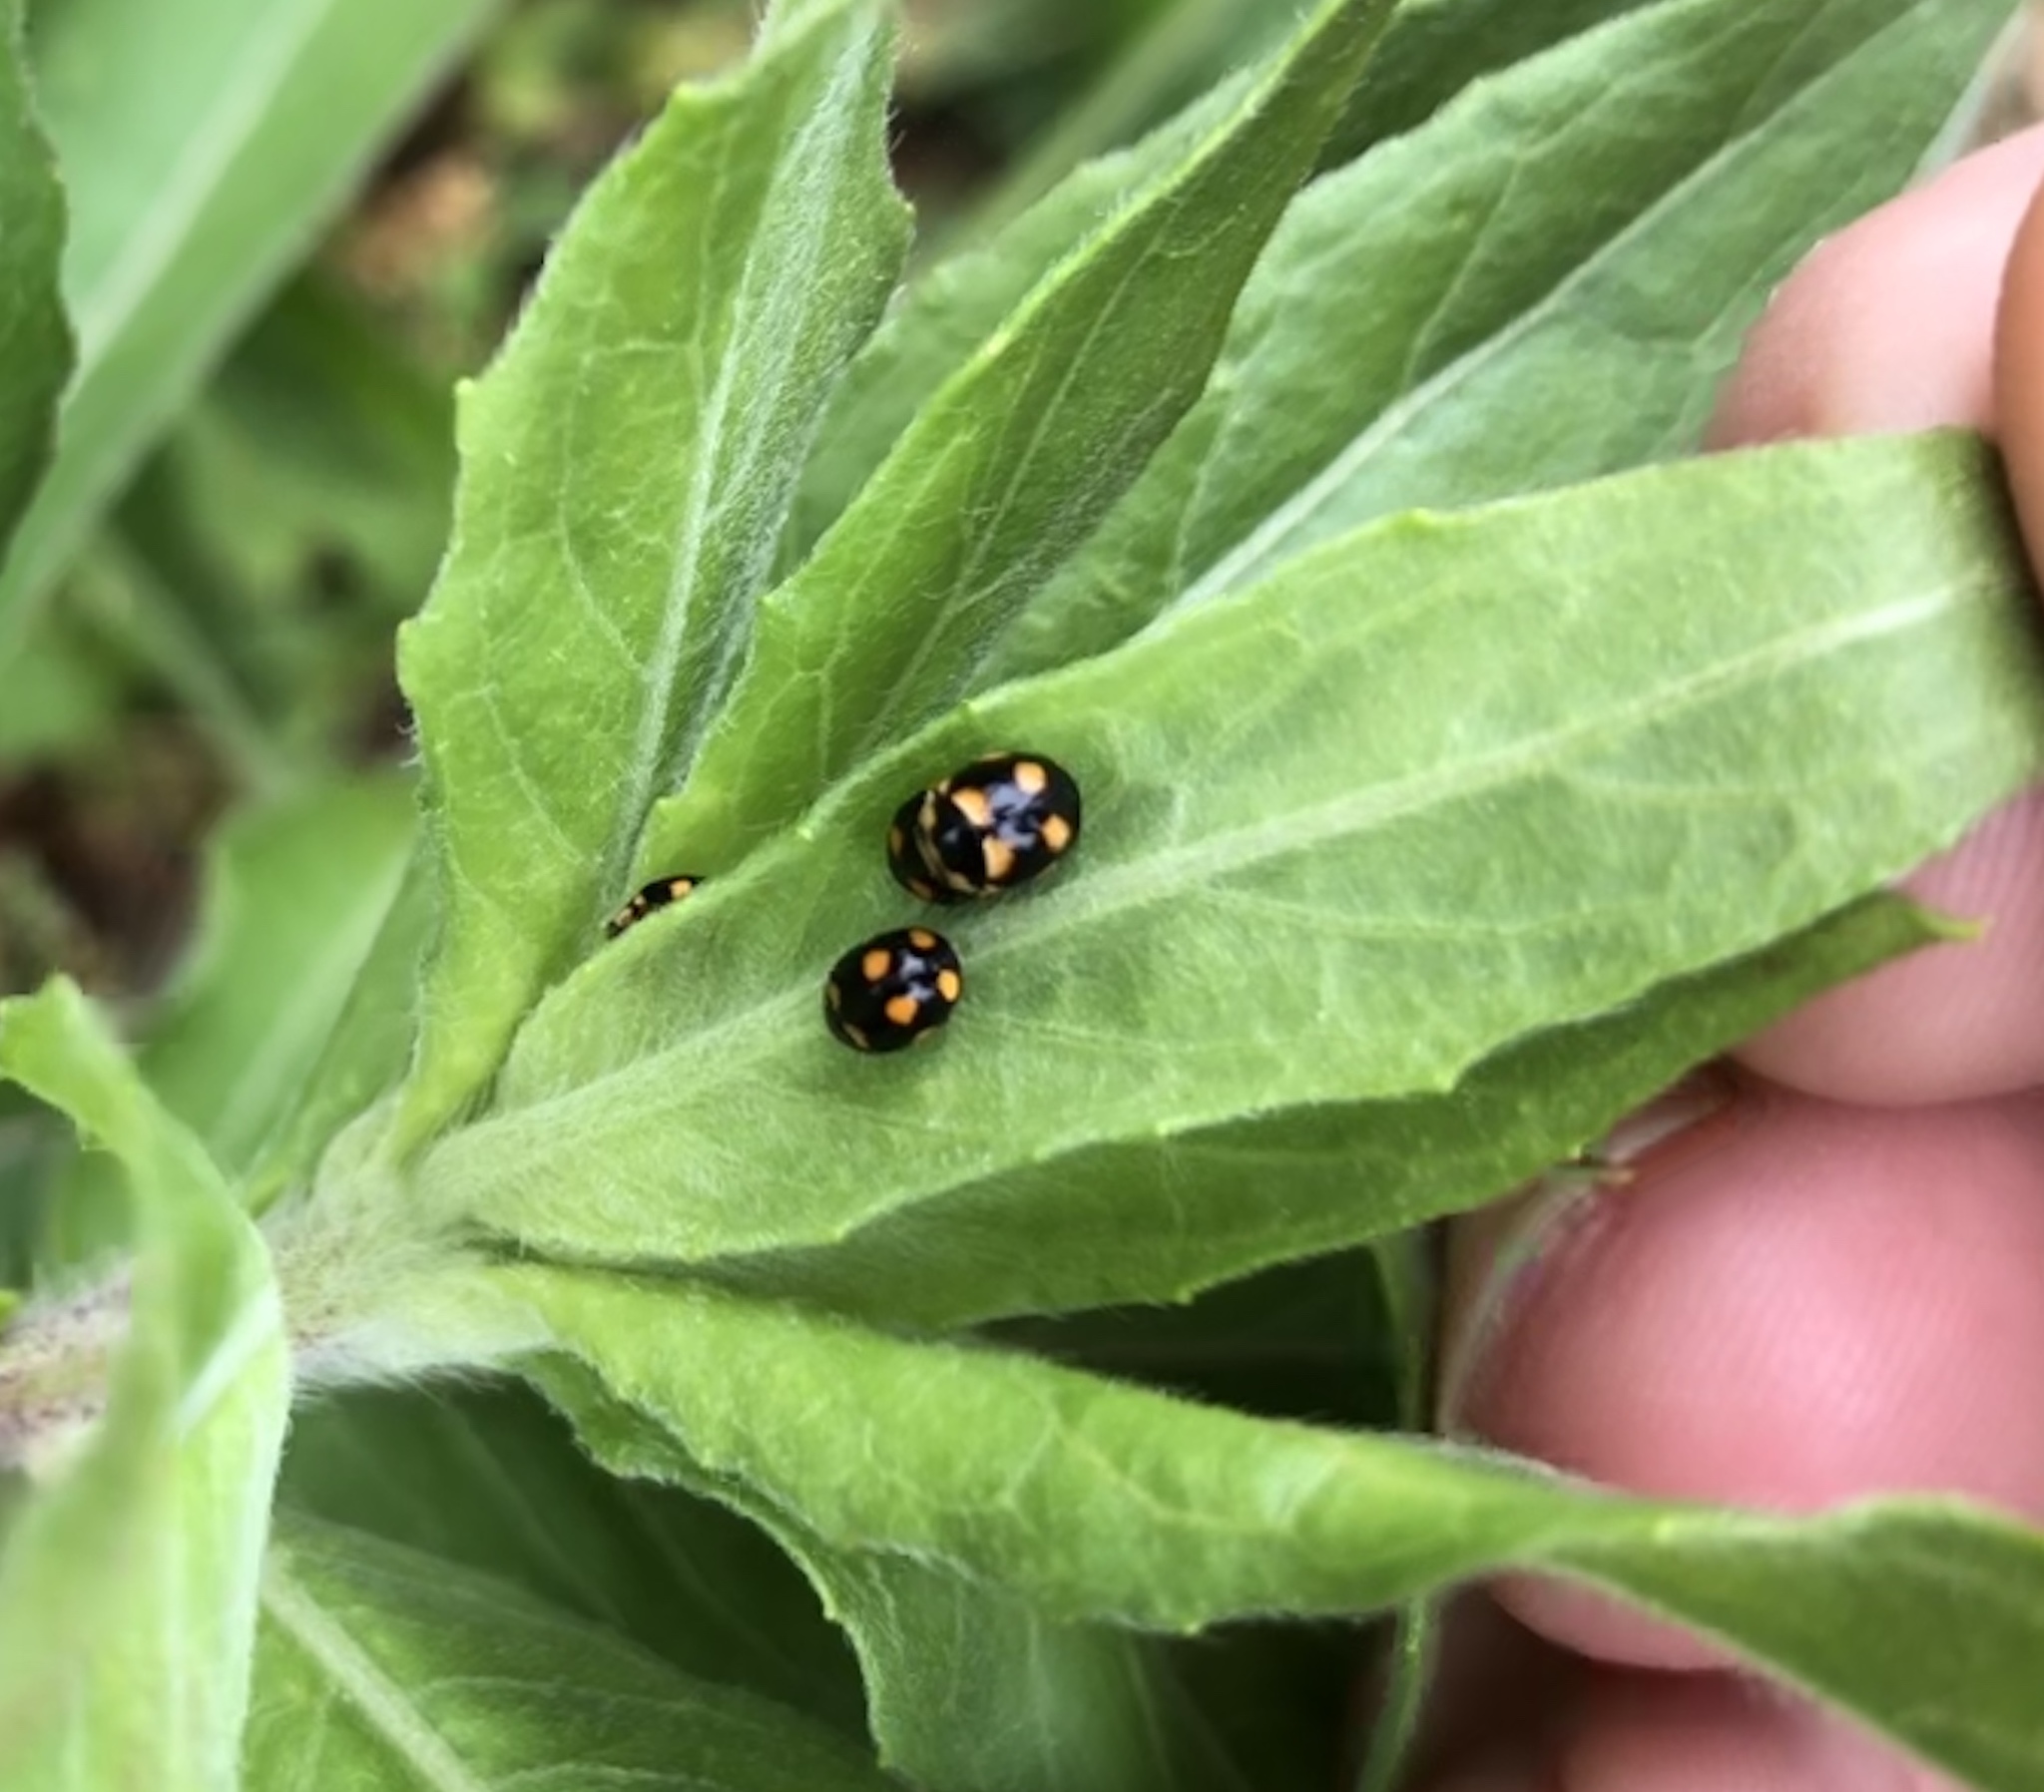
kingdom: Animalia
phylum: Arthropoda
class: Insecta
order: Coleoptera
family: Coccinellidae
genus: Brachiacantha
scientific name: Brachiacantha ursina
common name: Ursine spurleg lady beetle
